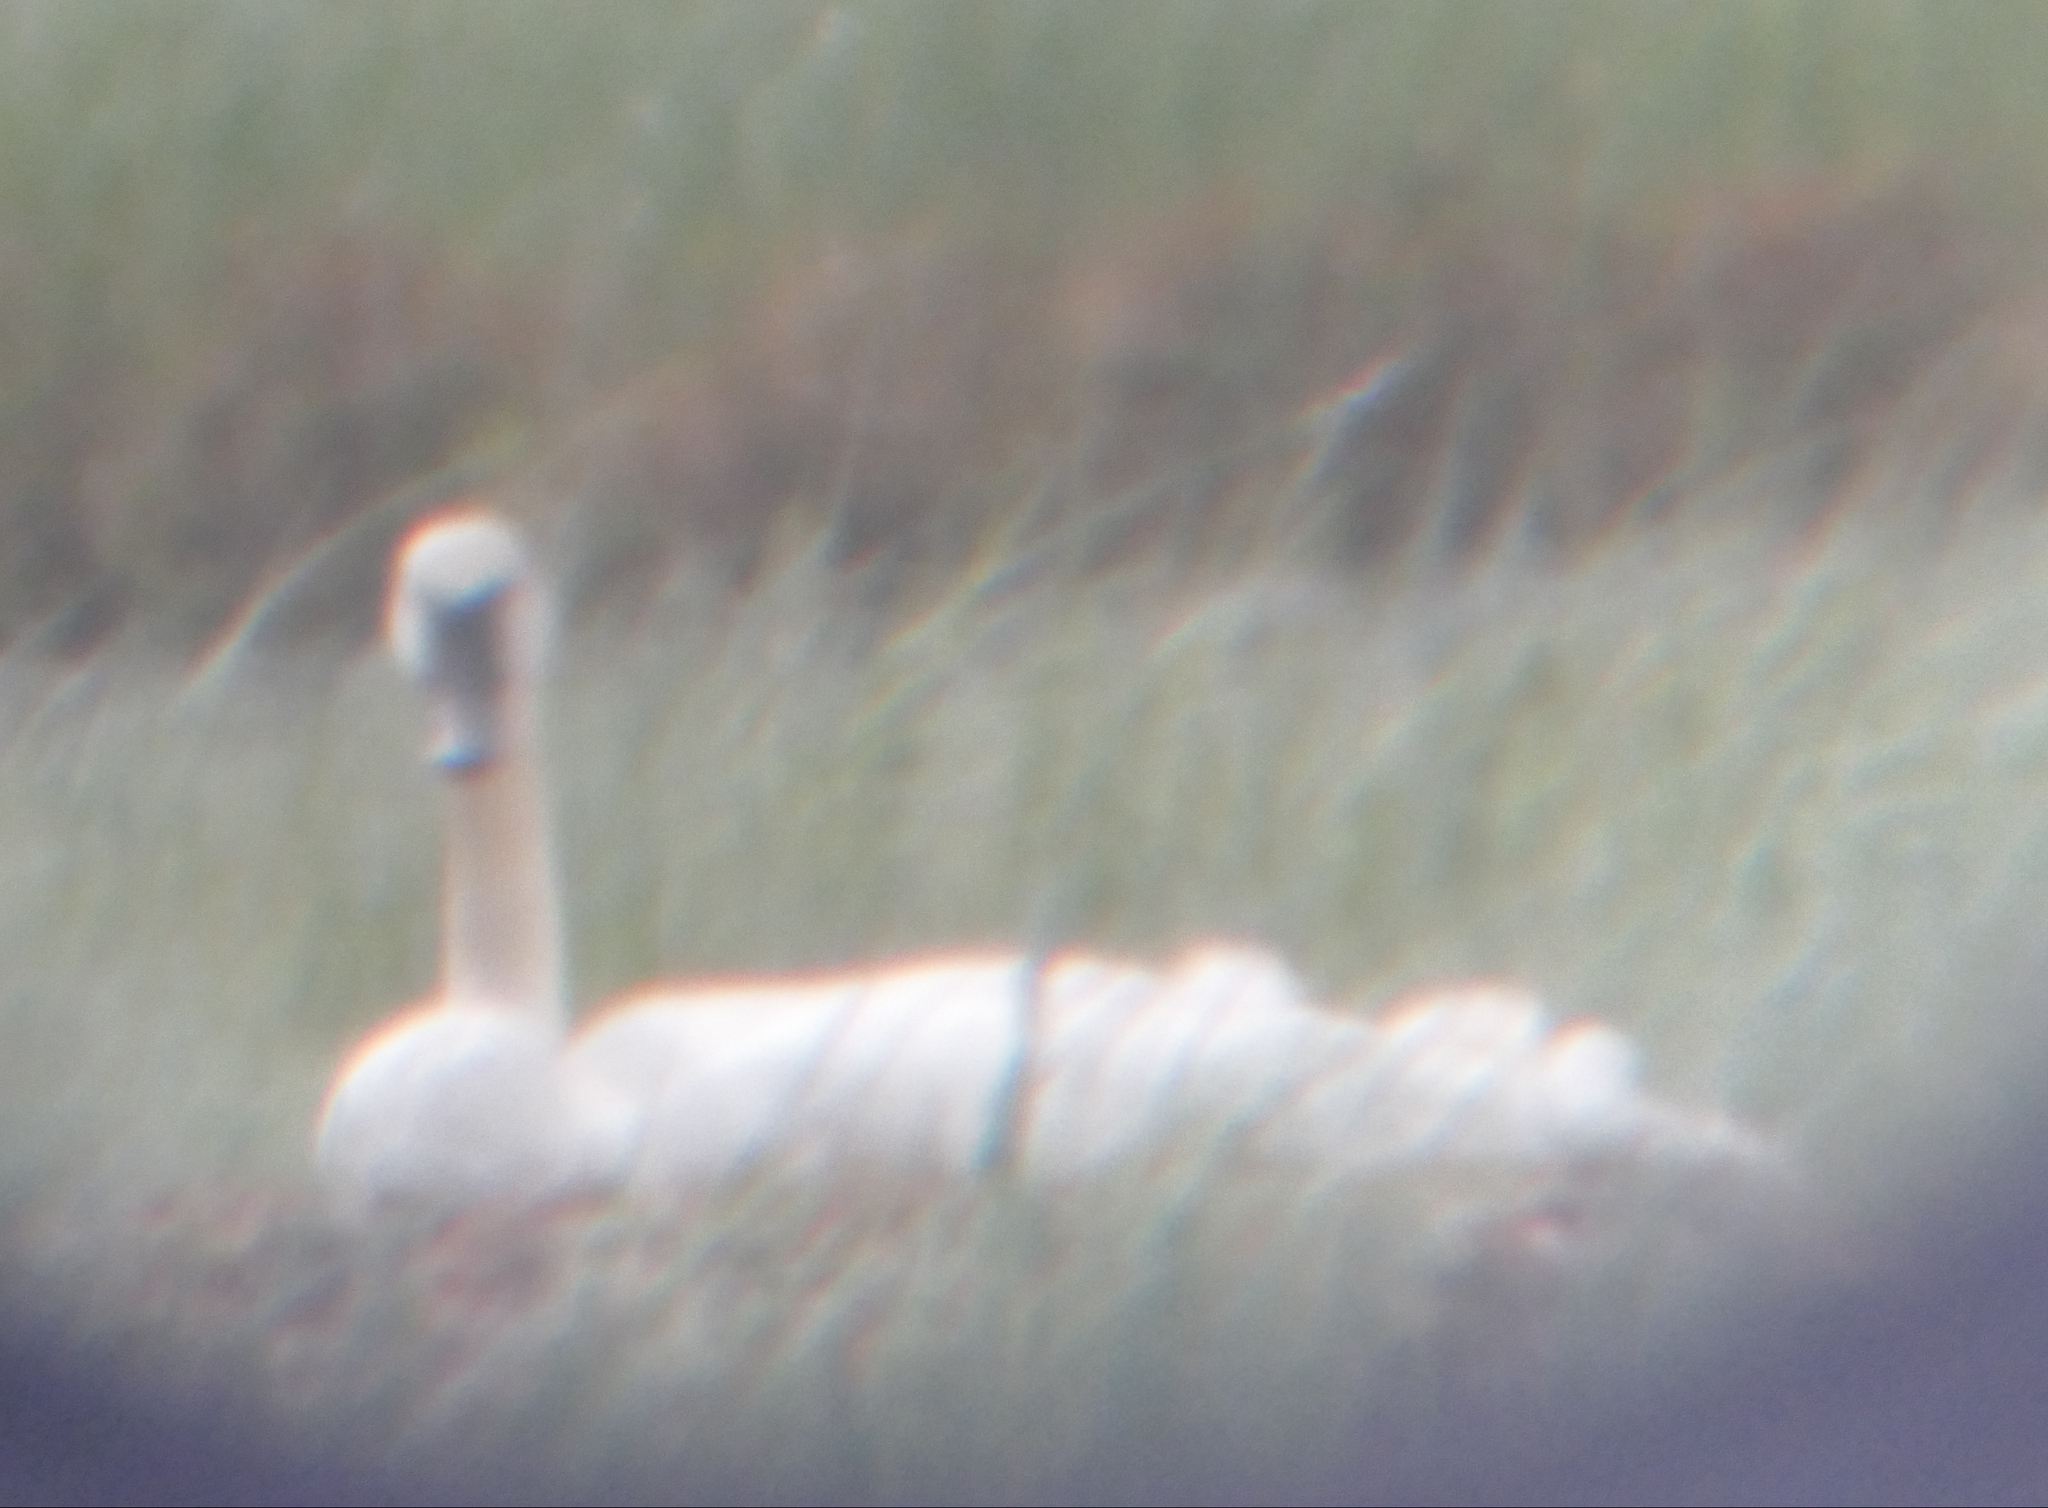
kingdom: Animalia
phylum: Chordata
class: Aves
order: Anseriformes
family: Anatidae
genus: Cygnus
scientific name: Cygnus buccinator
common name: Trumpeter swan
